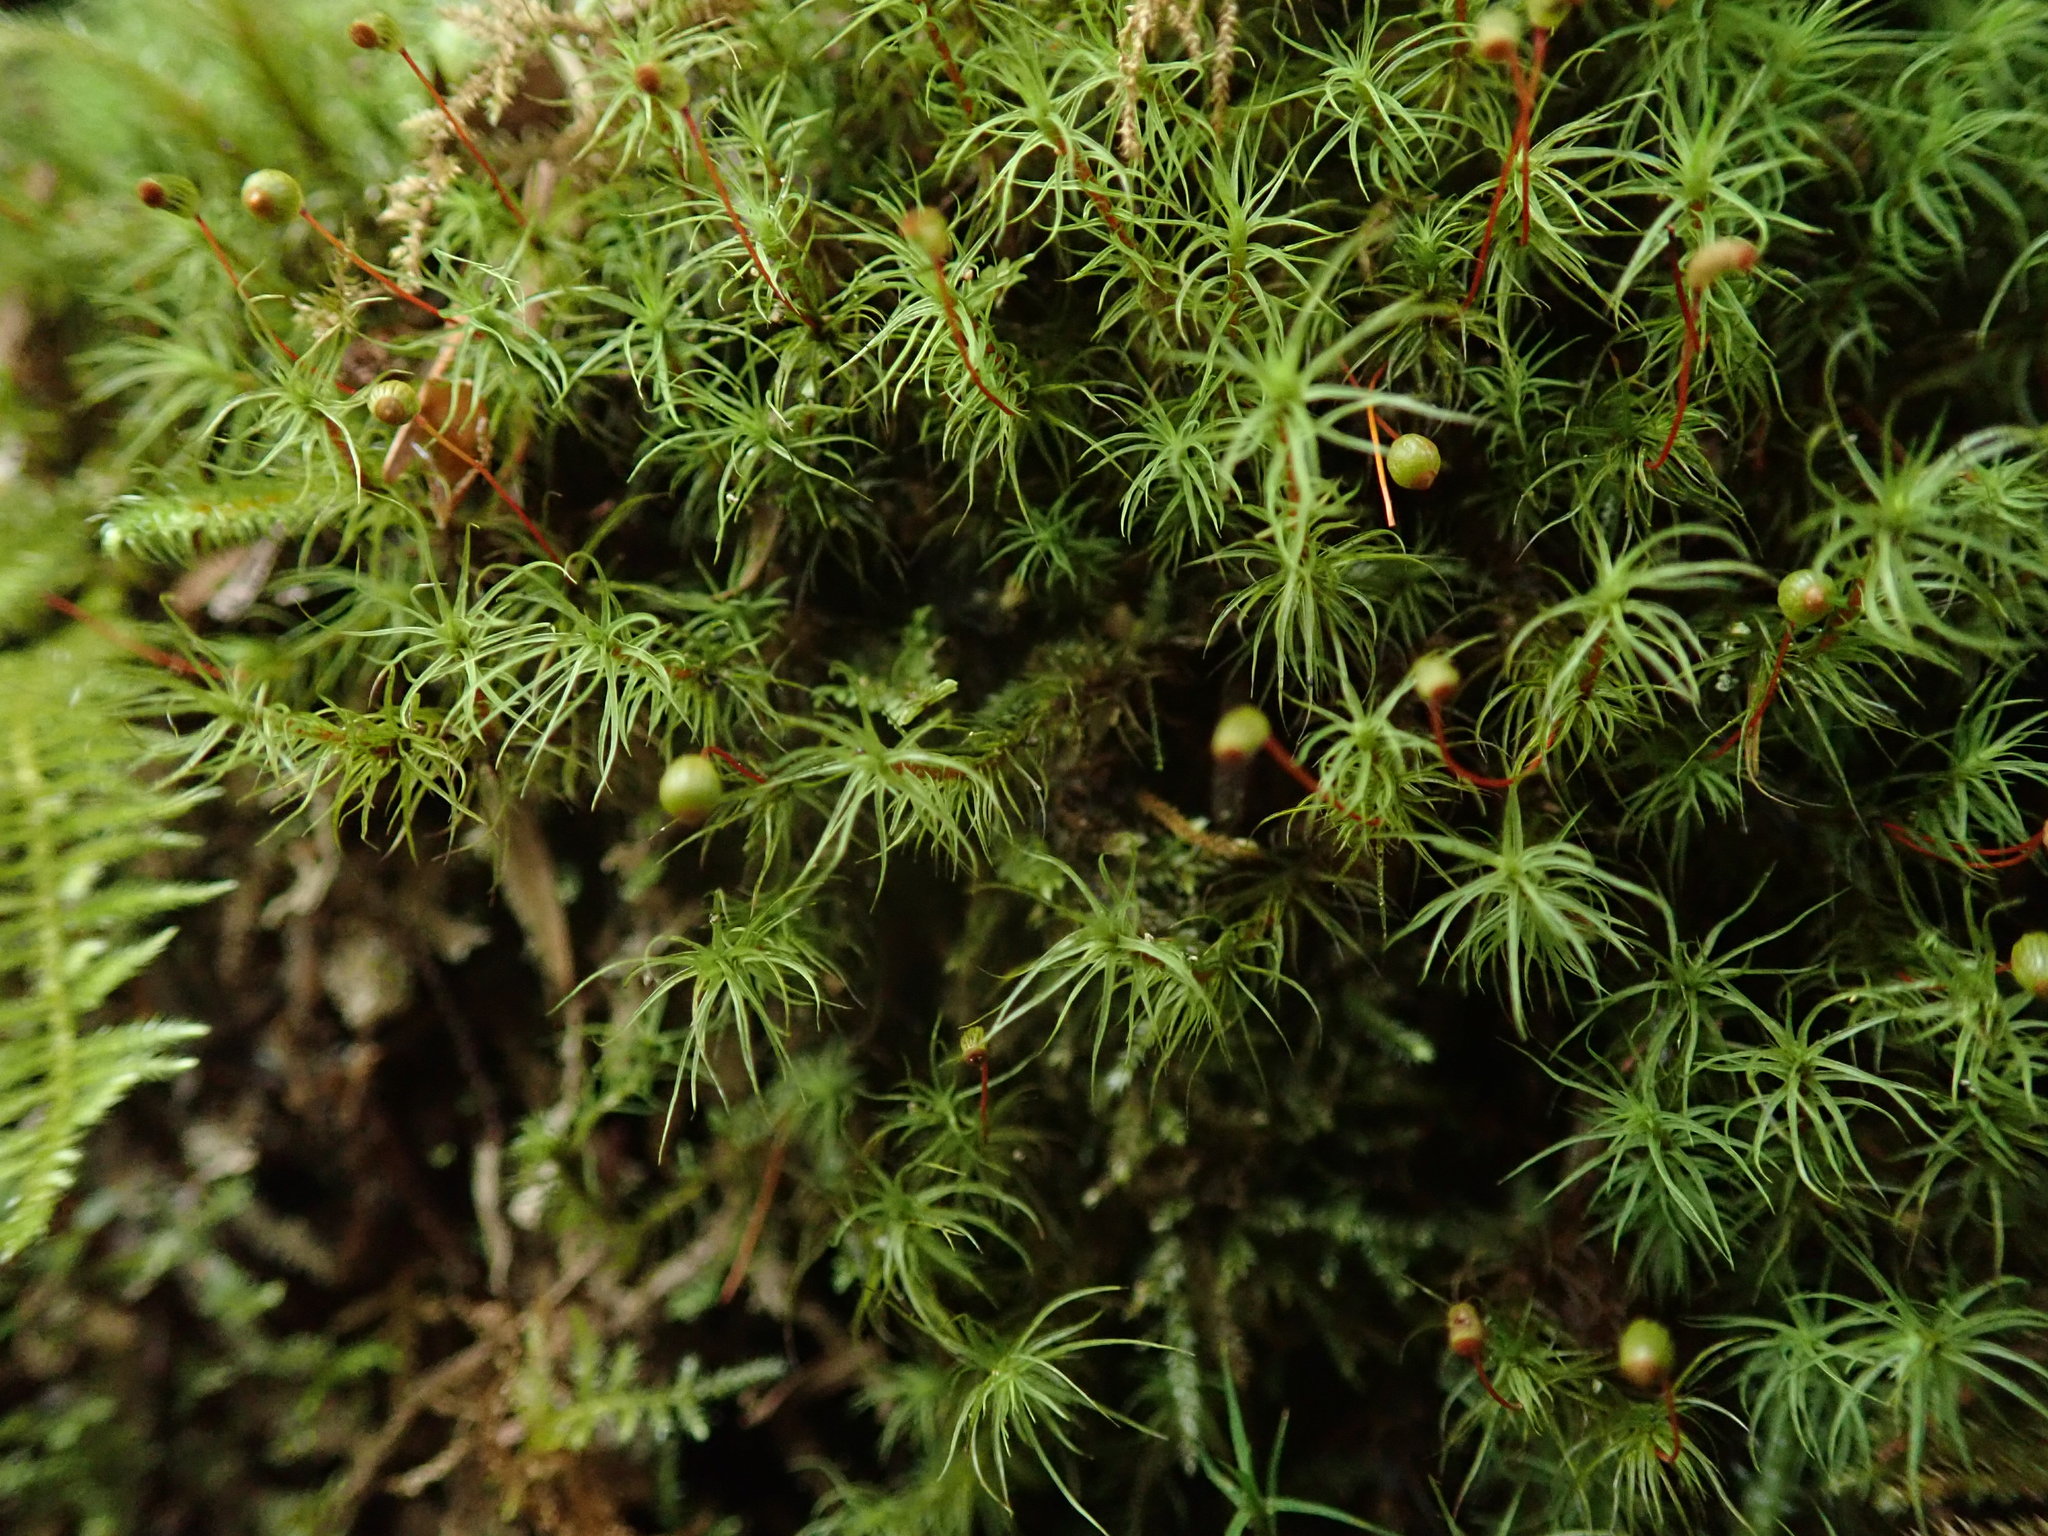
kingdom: Plantae
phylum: Bryophyta
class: Bryopsida
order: Bartramiales
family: Bartramiaceae
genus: Bartramia
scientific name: Bartramia ithyphylla
